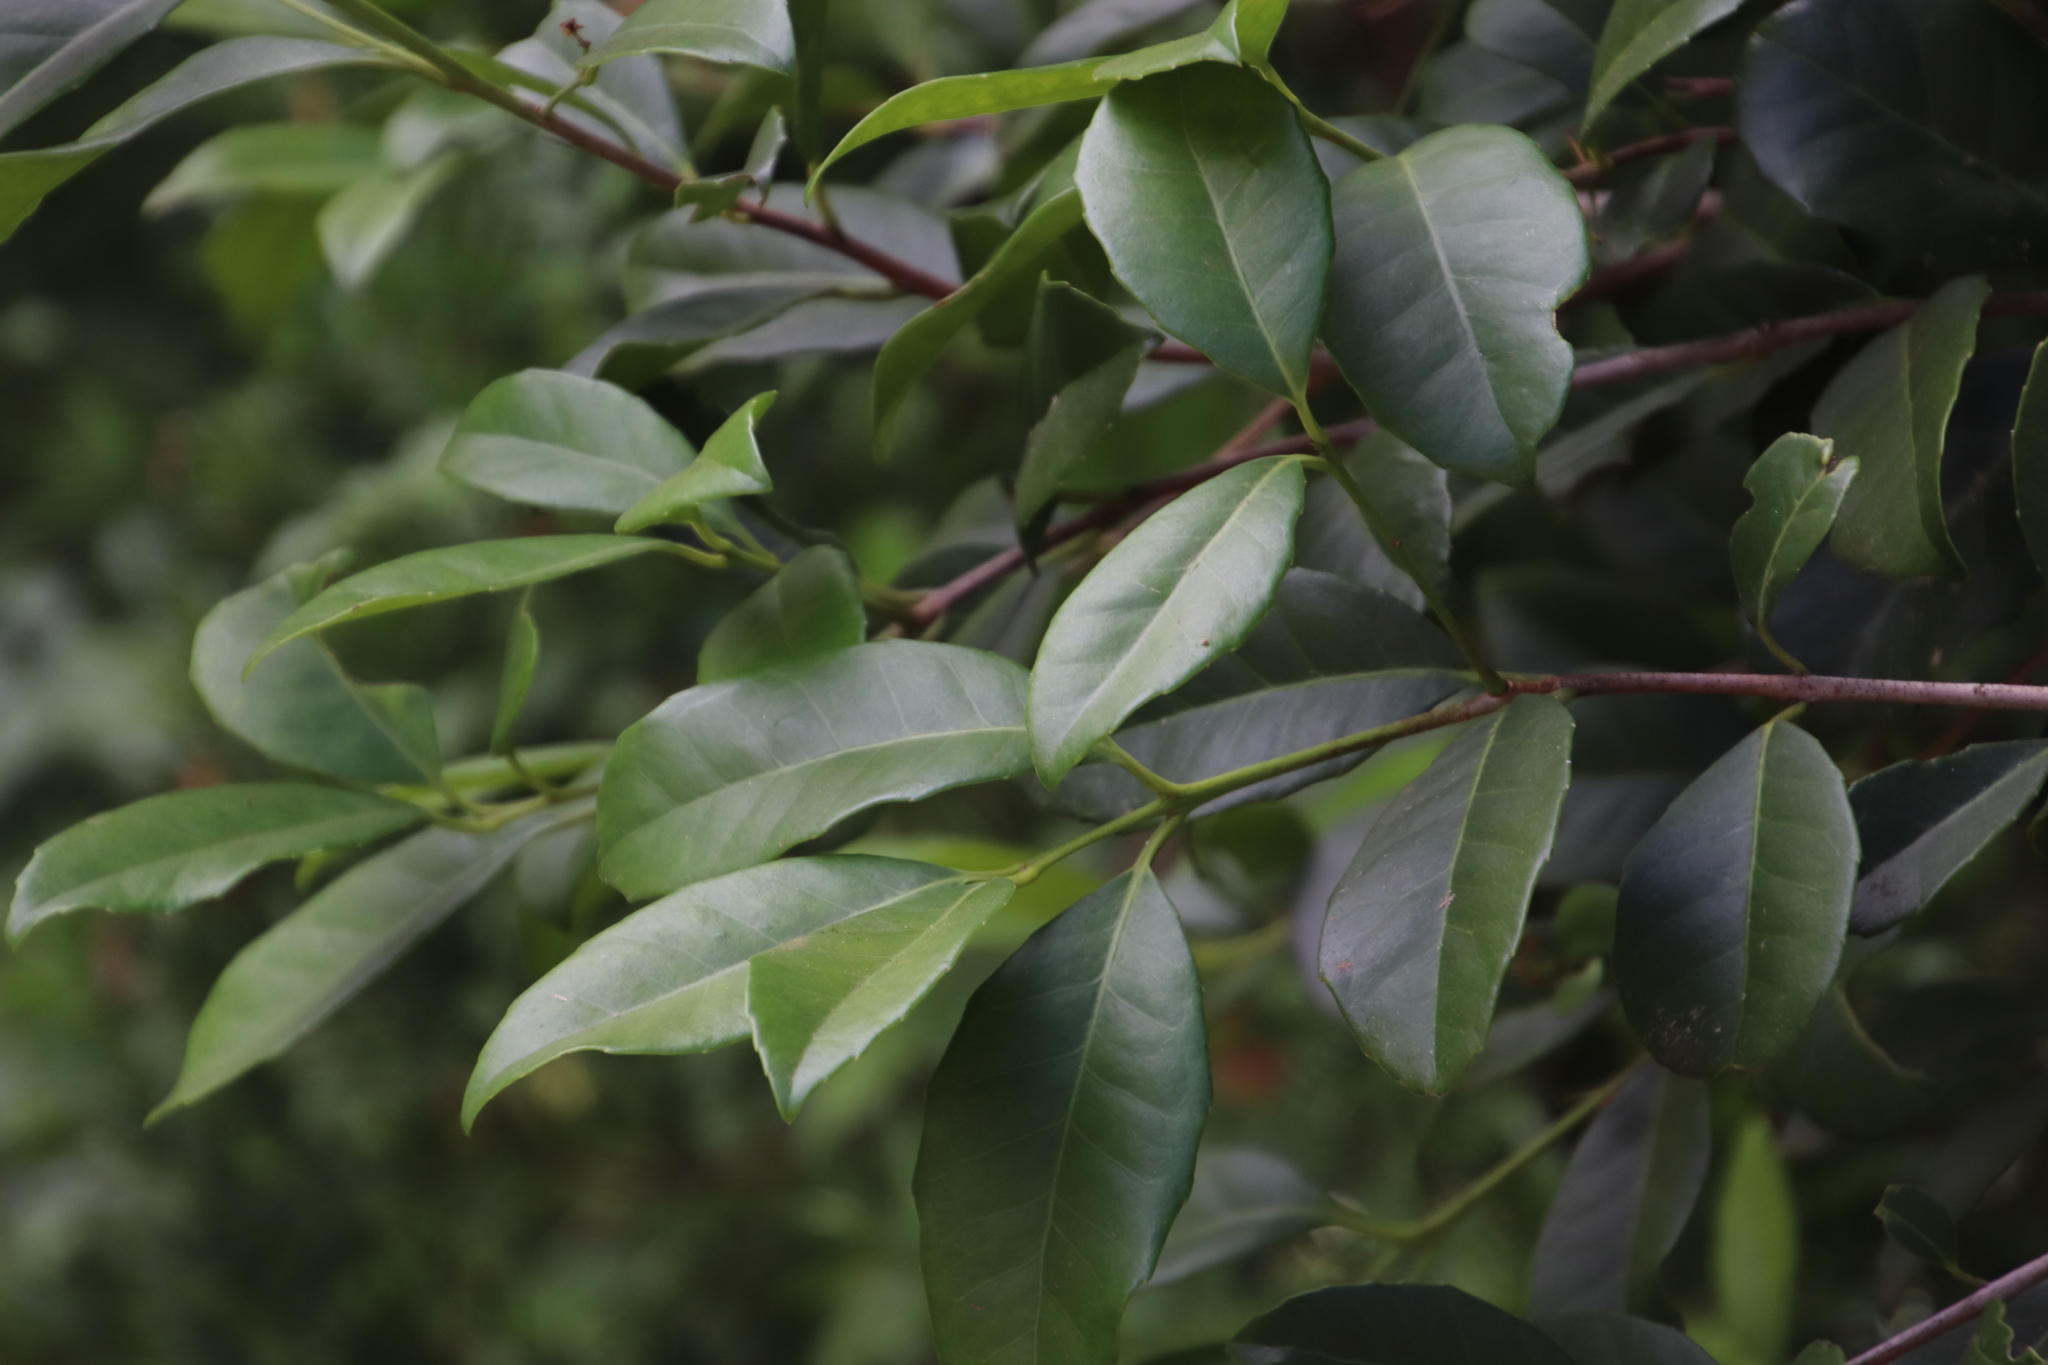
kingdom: Plantae
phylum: Tracheophyta
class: Magnoliopsida
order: Celastrales
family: Celastraceae
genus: Elaeodendron
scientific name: Elaeodendron croceum
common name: Saffron
